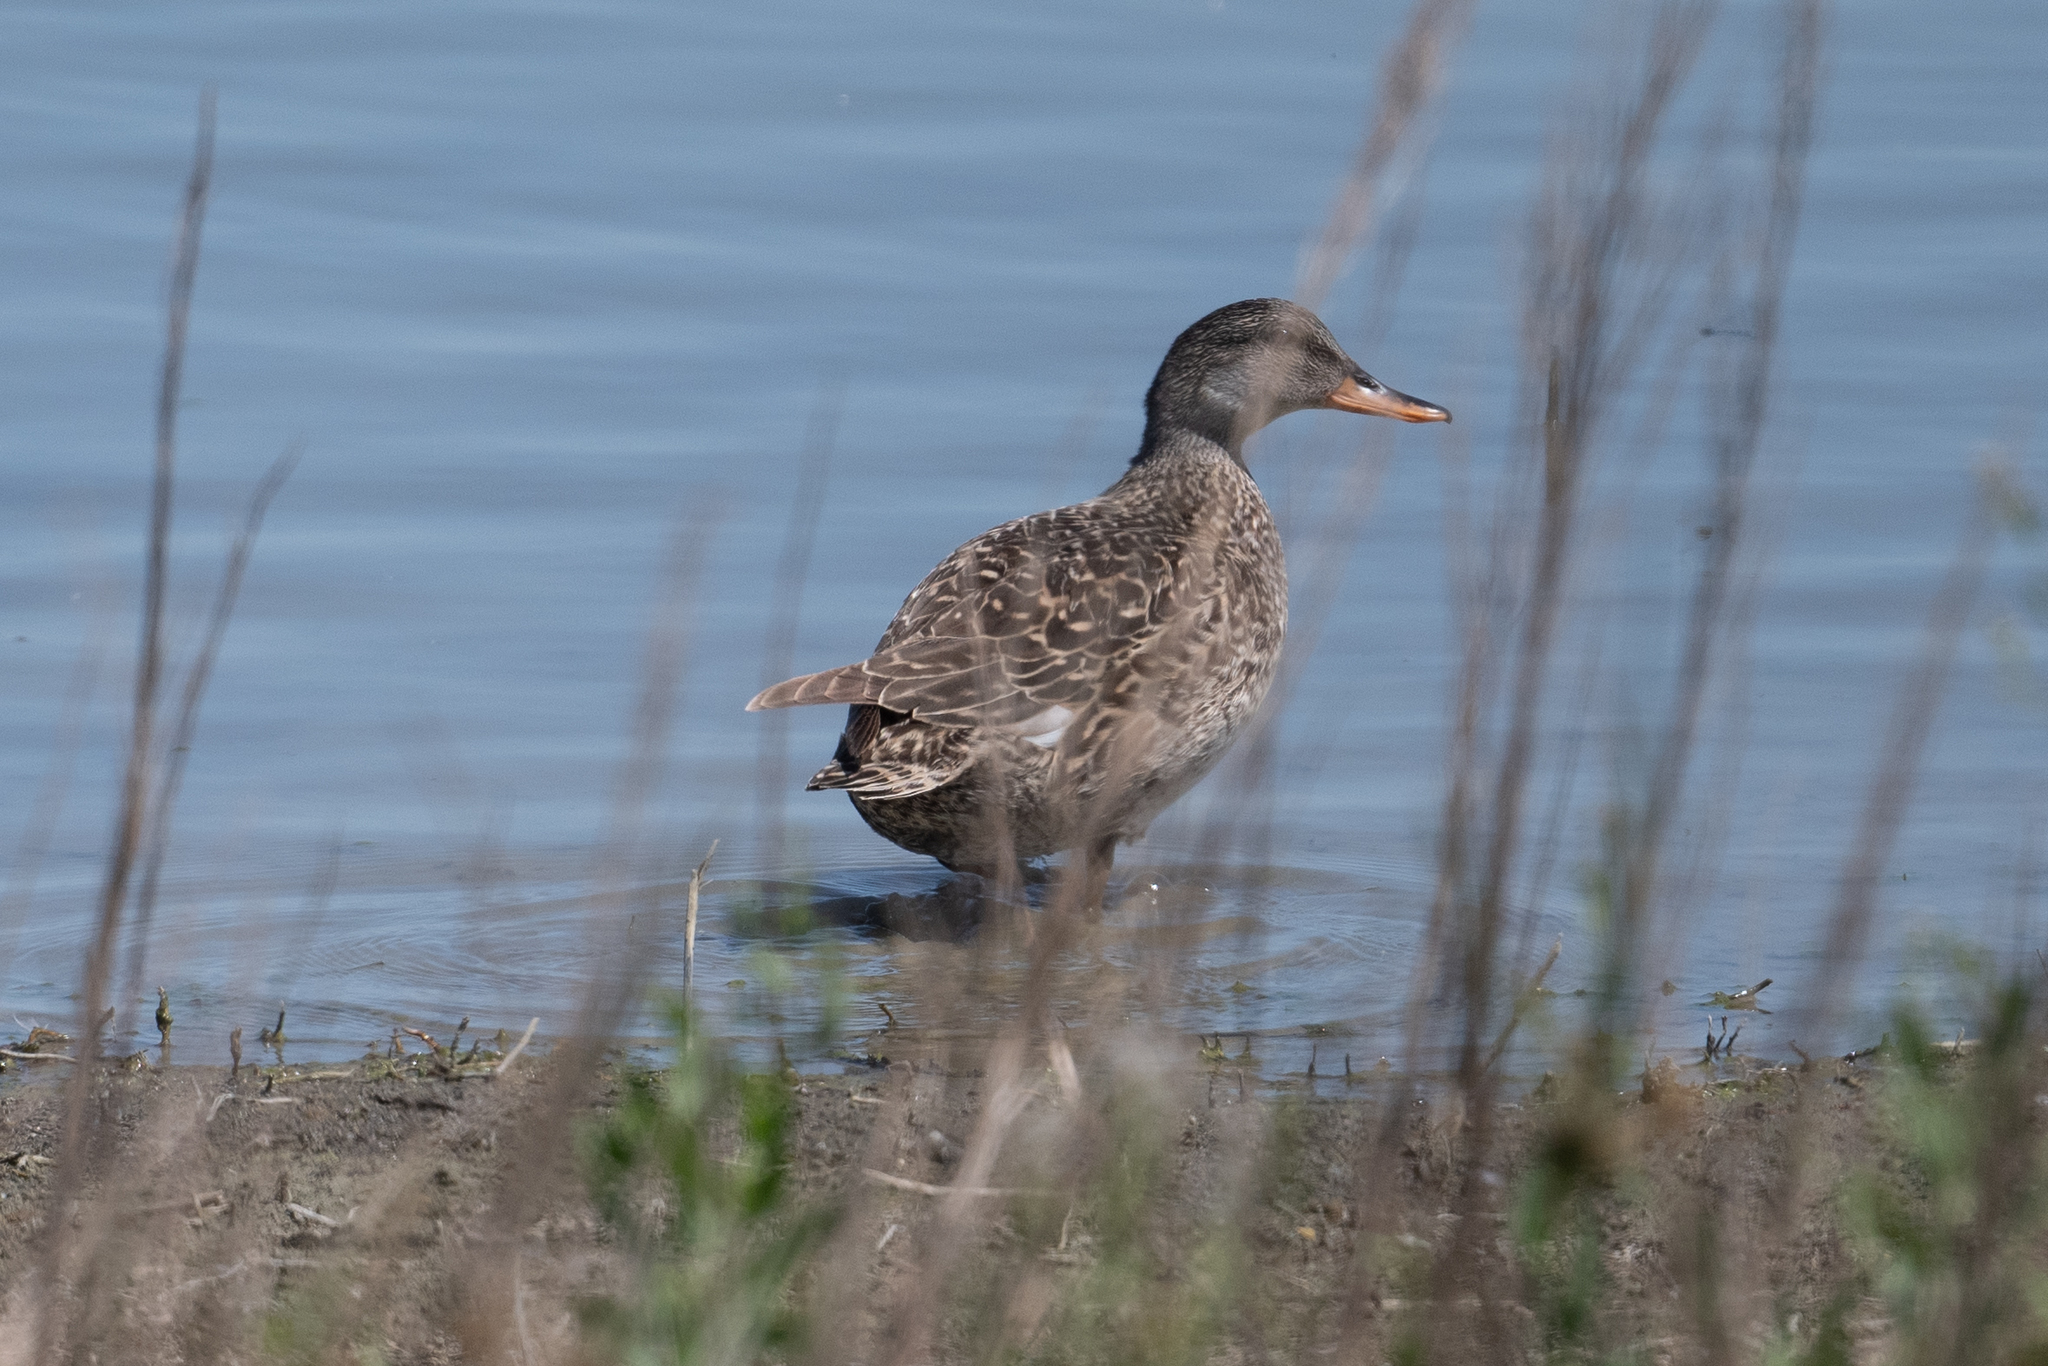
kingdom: Animalia
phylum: Chordata
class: Aves
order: Anseriformes
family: Anatidae
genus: Mareca
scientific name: Mareca strepera
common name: Gadwall
